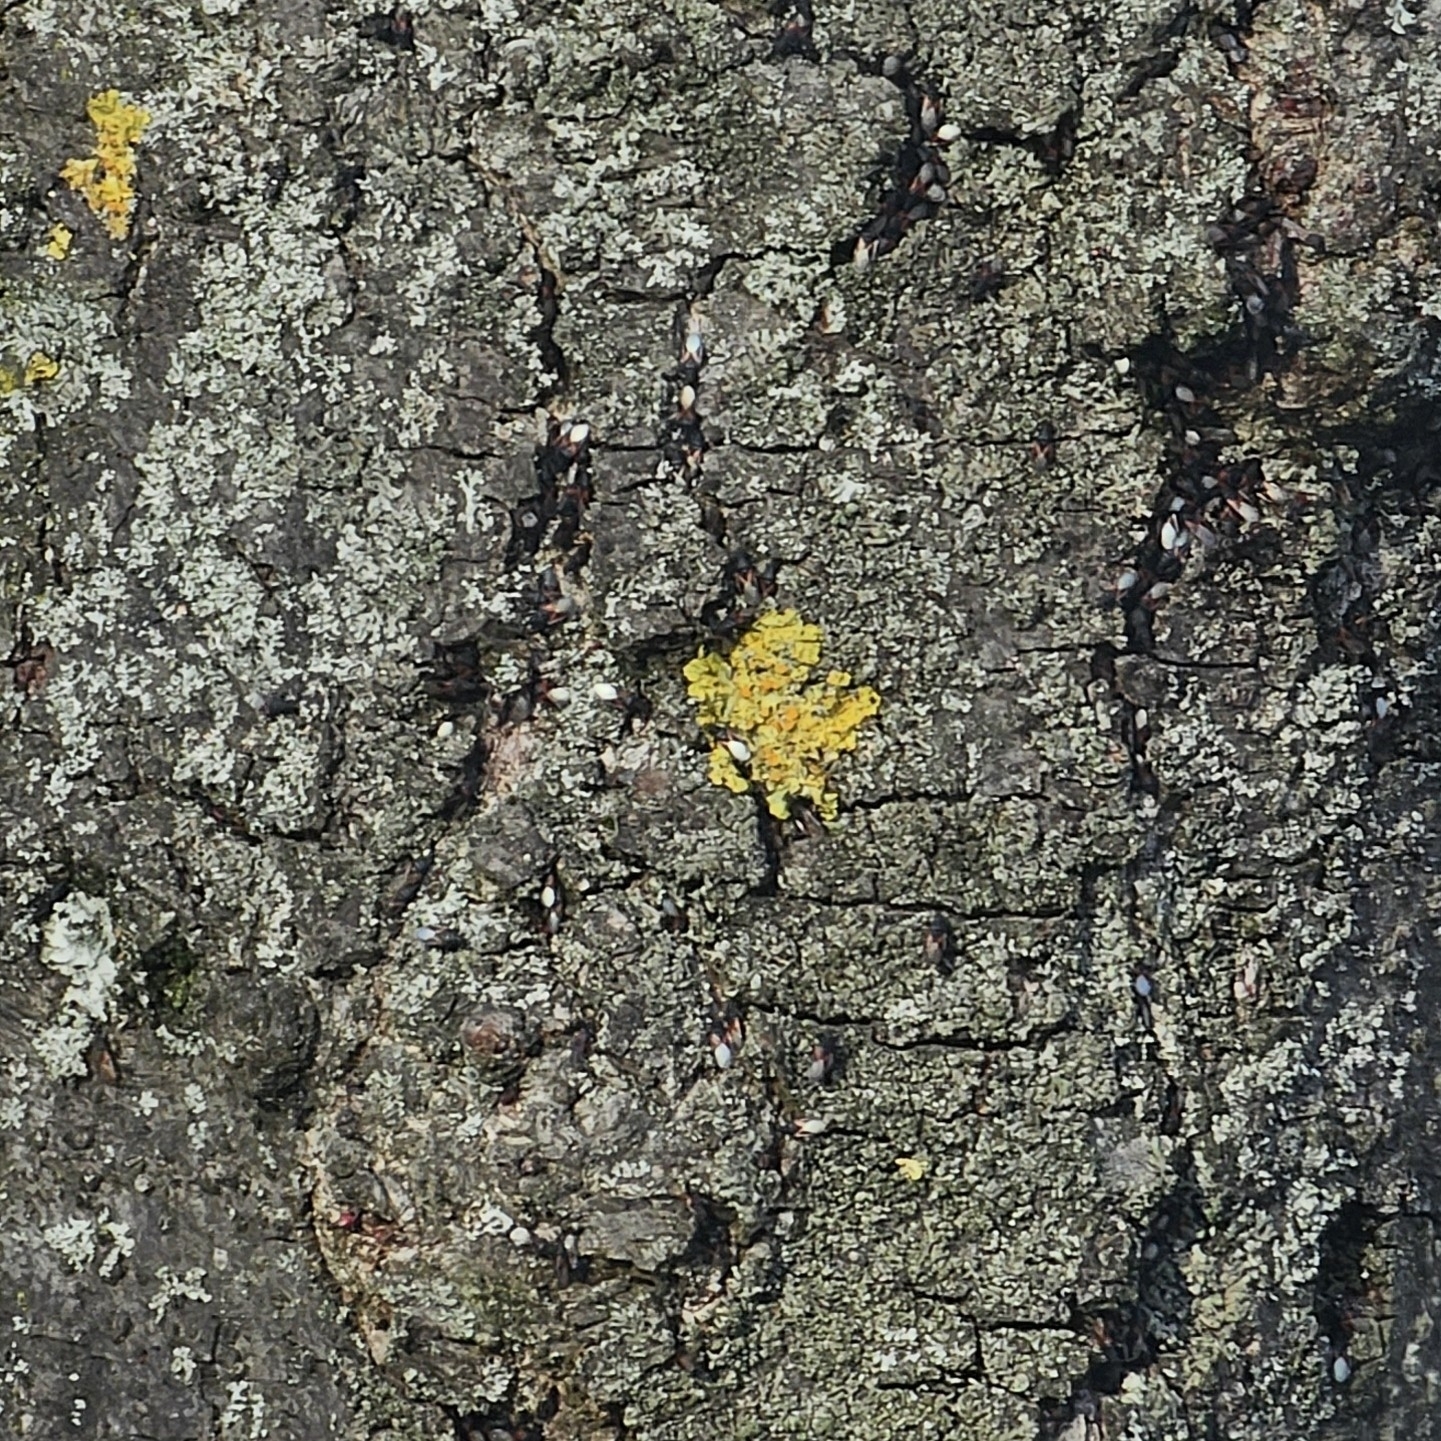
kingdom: Fungi
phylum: Ascomycota
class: Lecanoromycetes
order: Teloschistales
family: Teloschistaceae
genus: Xanthoria
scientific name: Xanthoria parietina
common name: Common orange lichen
